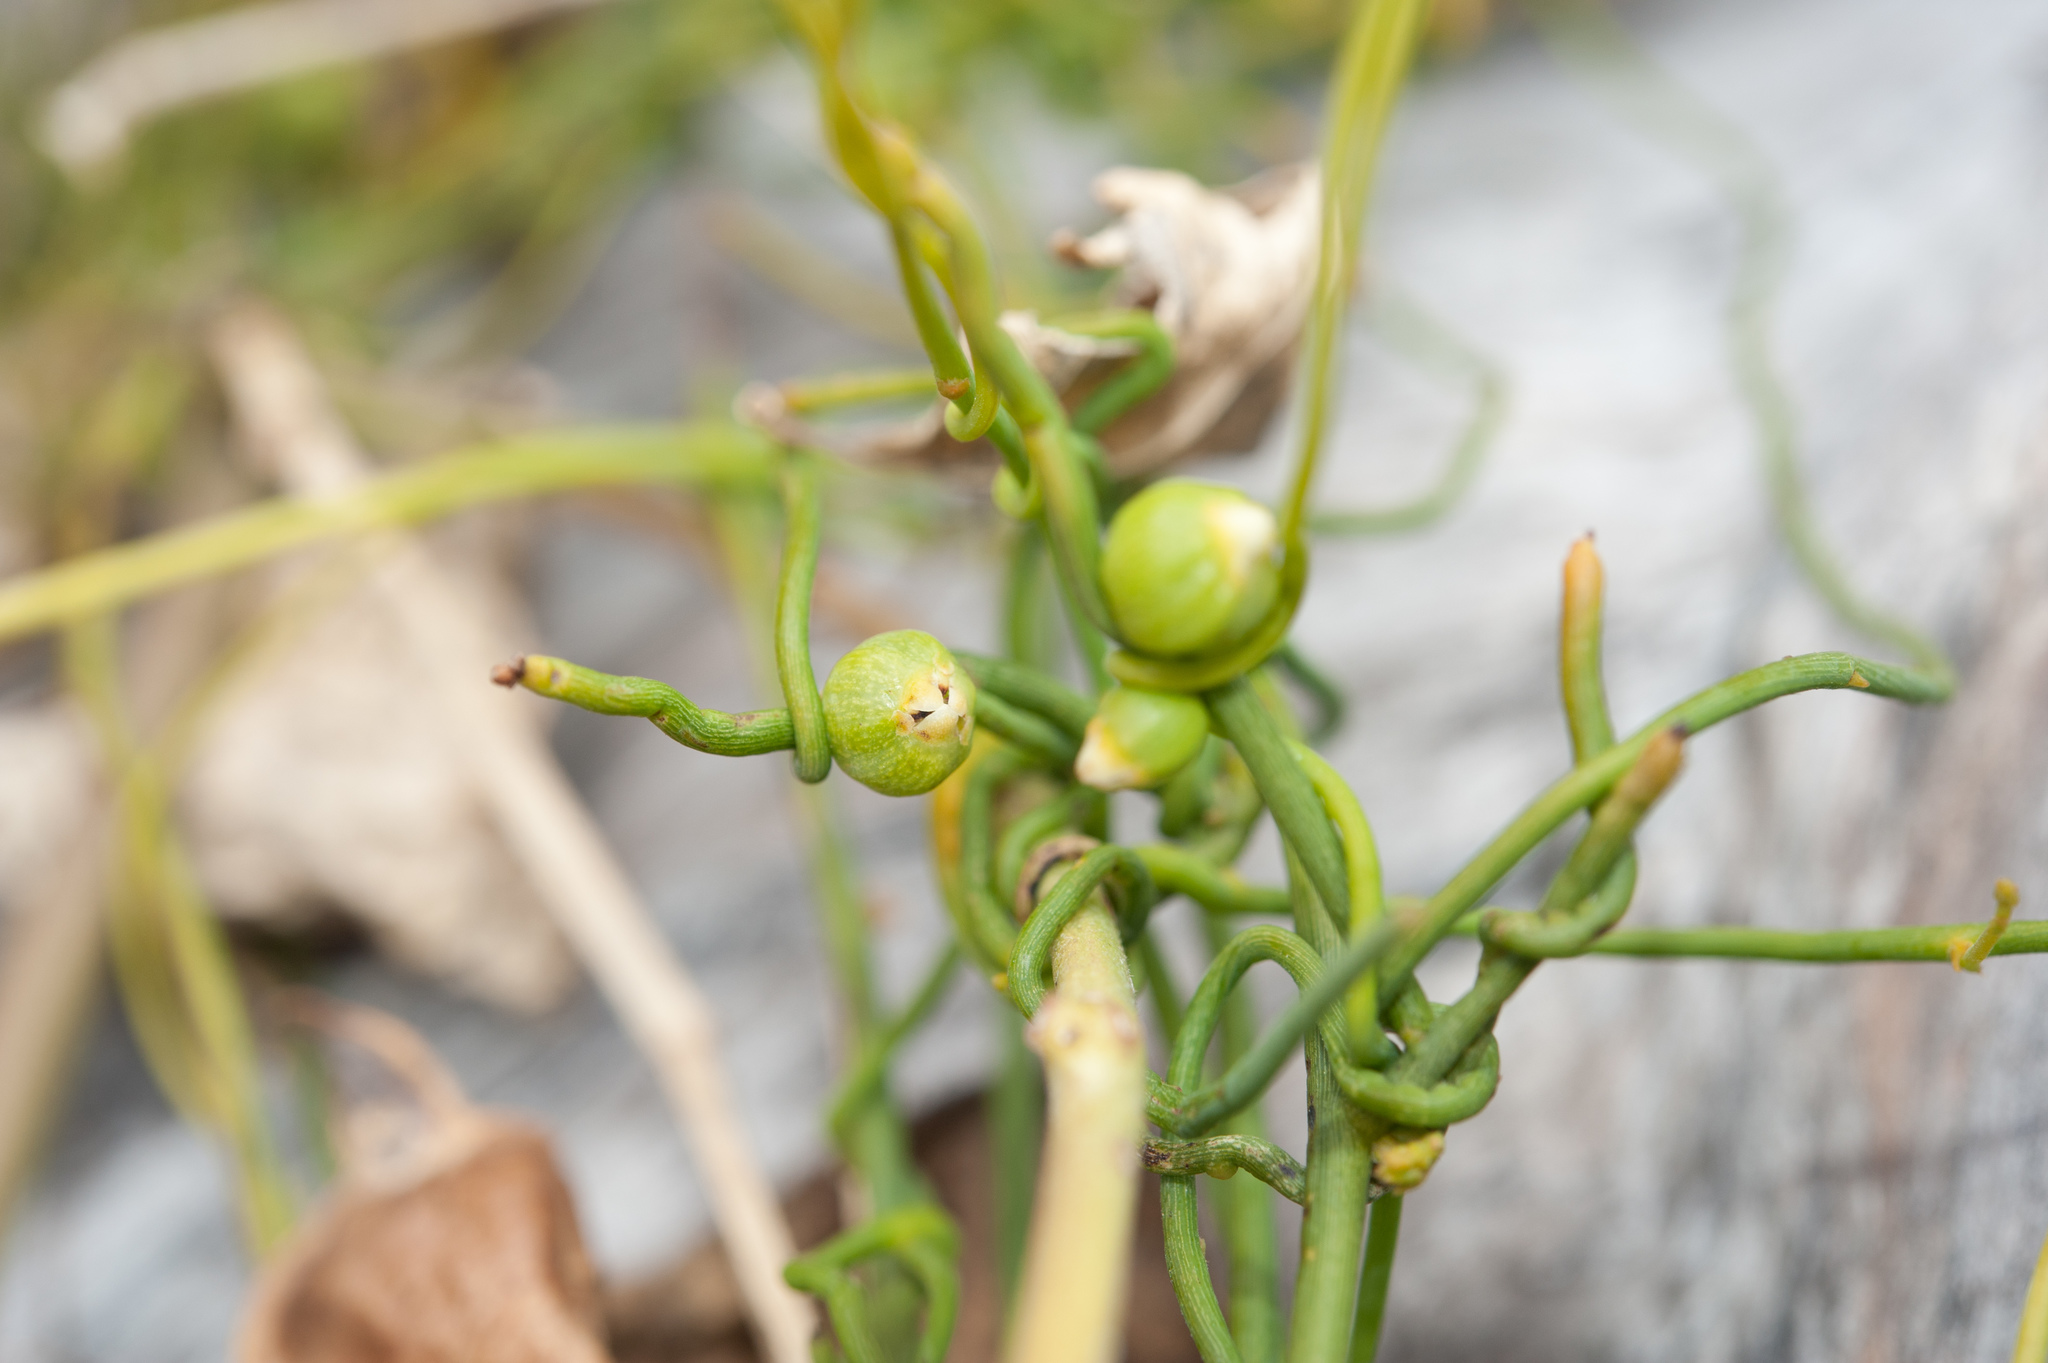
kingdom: Plantae
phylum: Tracheophyta
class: Magnoliopsida
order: Laurales
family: Lauraceae
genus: Cassytha
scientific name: Cassytha filiformis
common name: Dodder-laurel
